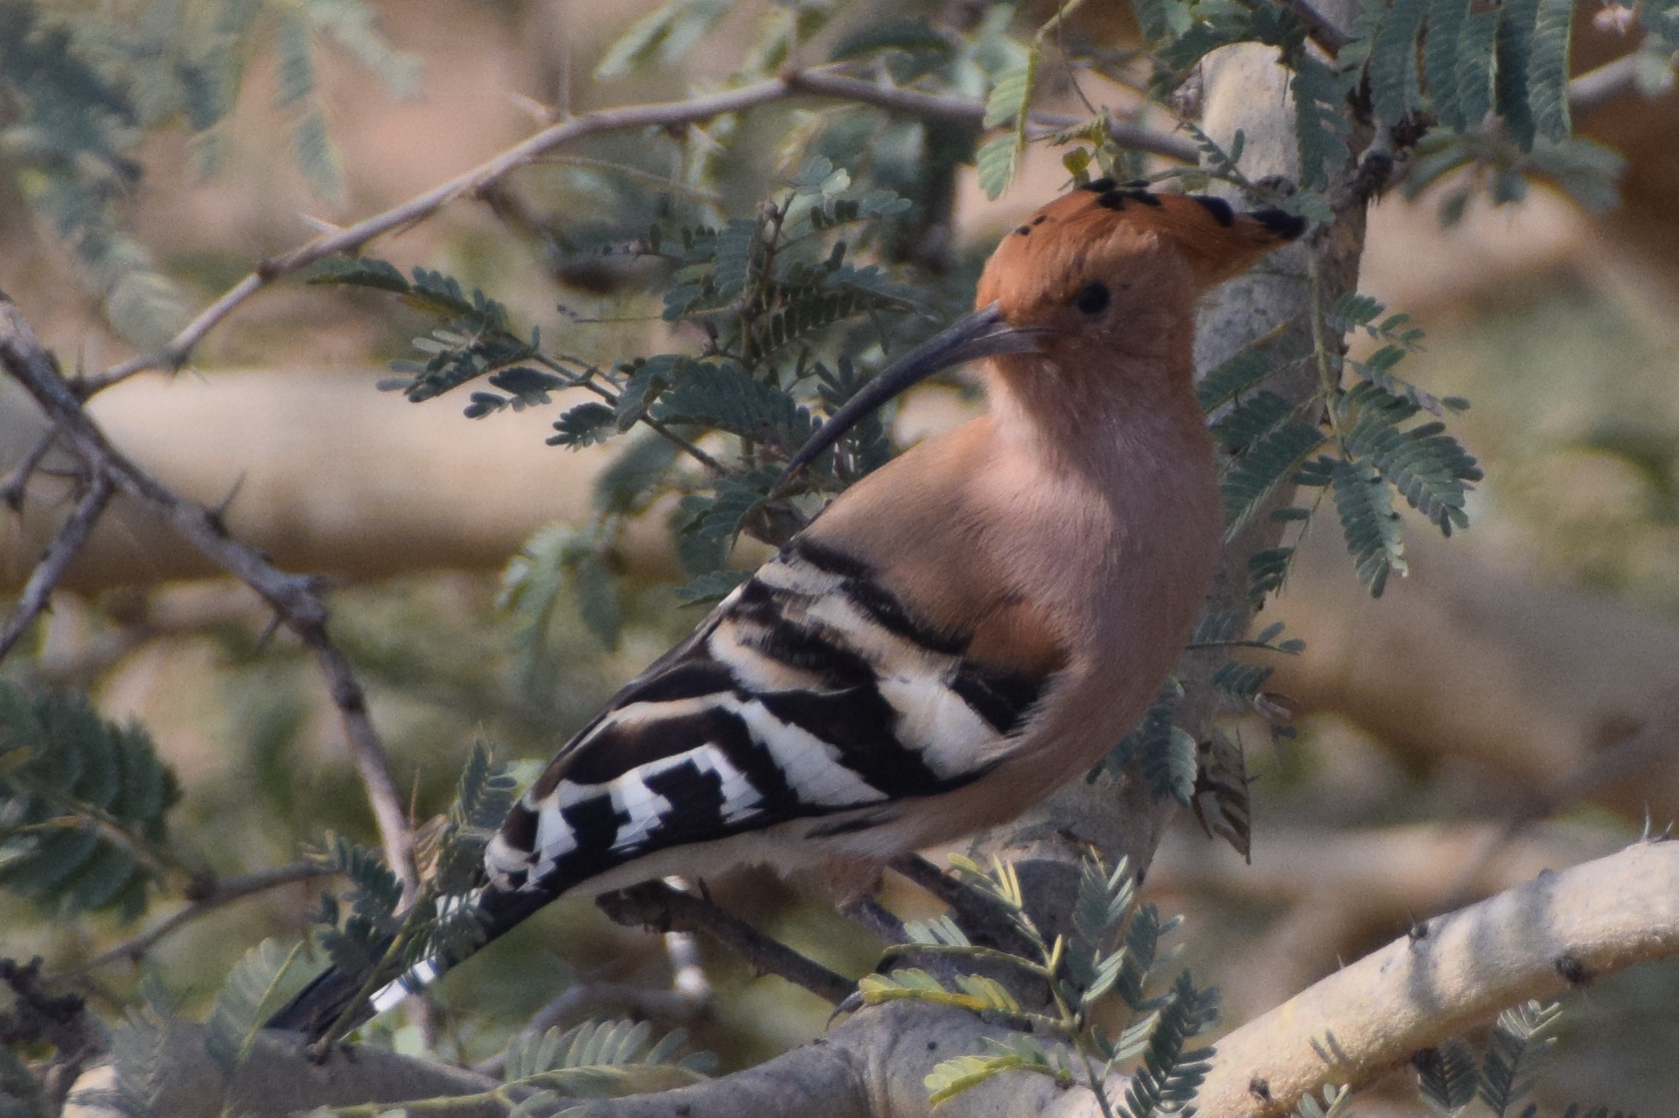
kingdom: Animalia
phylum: Chordata
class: Aves
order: Bucerotiformes
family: Upupidae
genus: Upupa
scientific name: Upupa epops
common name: Eurasian hoopoe
